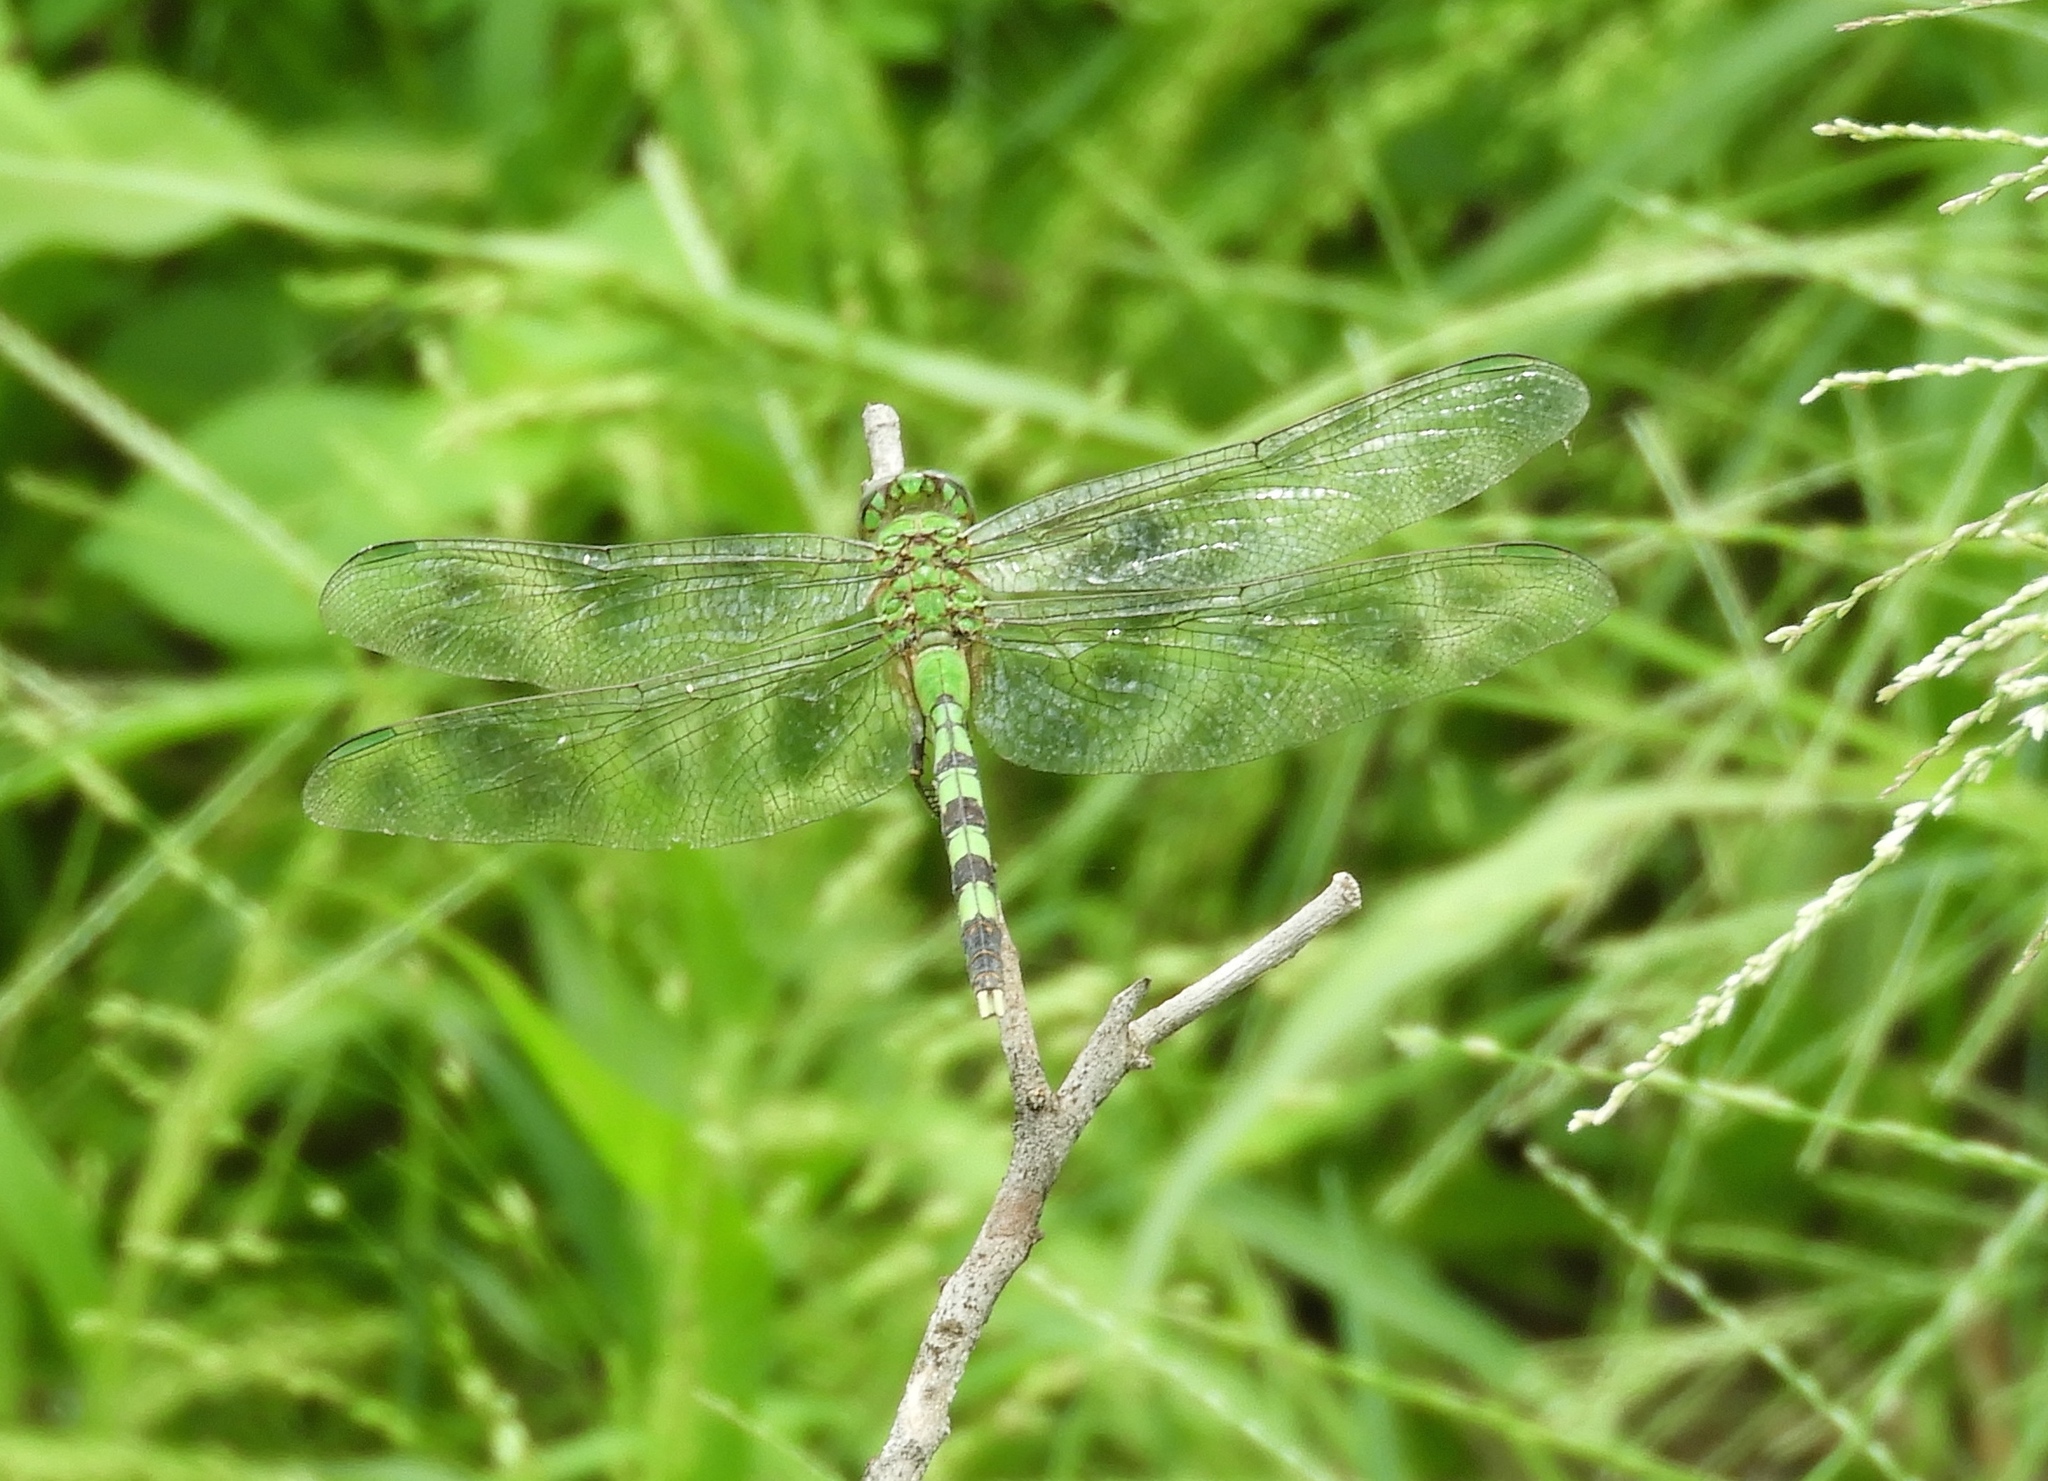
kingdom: Animalia
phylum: Arthropoda
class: Insecta
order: Odonata
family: Libellulidae
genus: Erythemis
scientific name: Erythemis vesiculosa
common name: Great pondhawk
